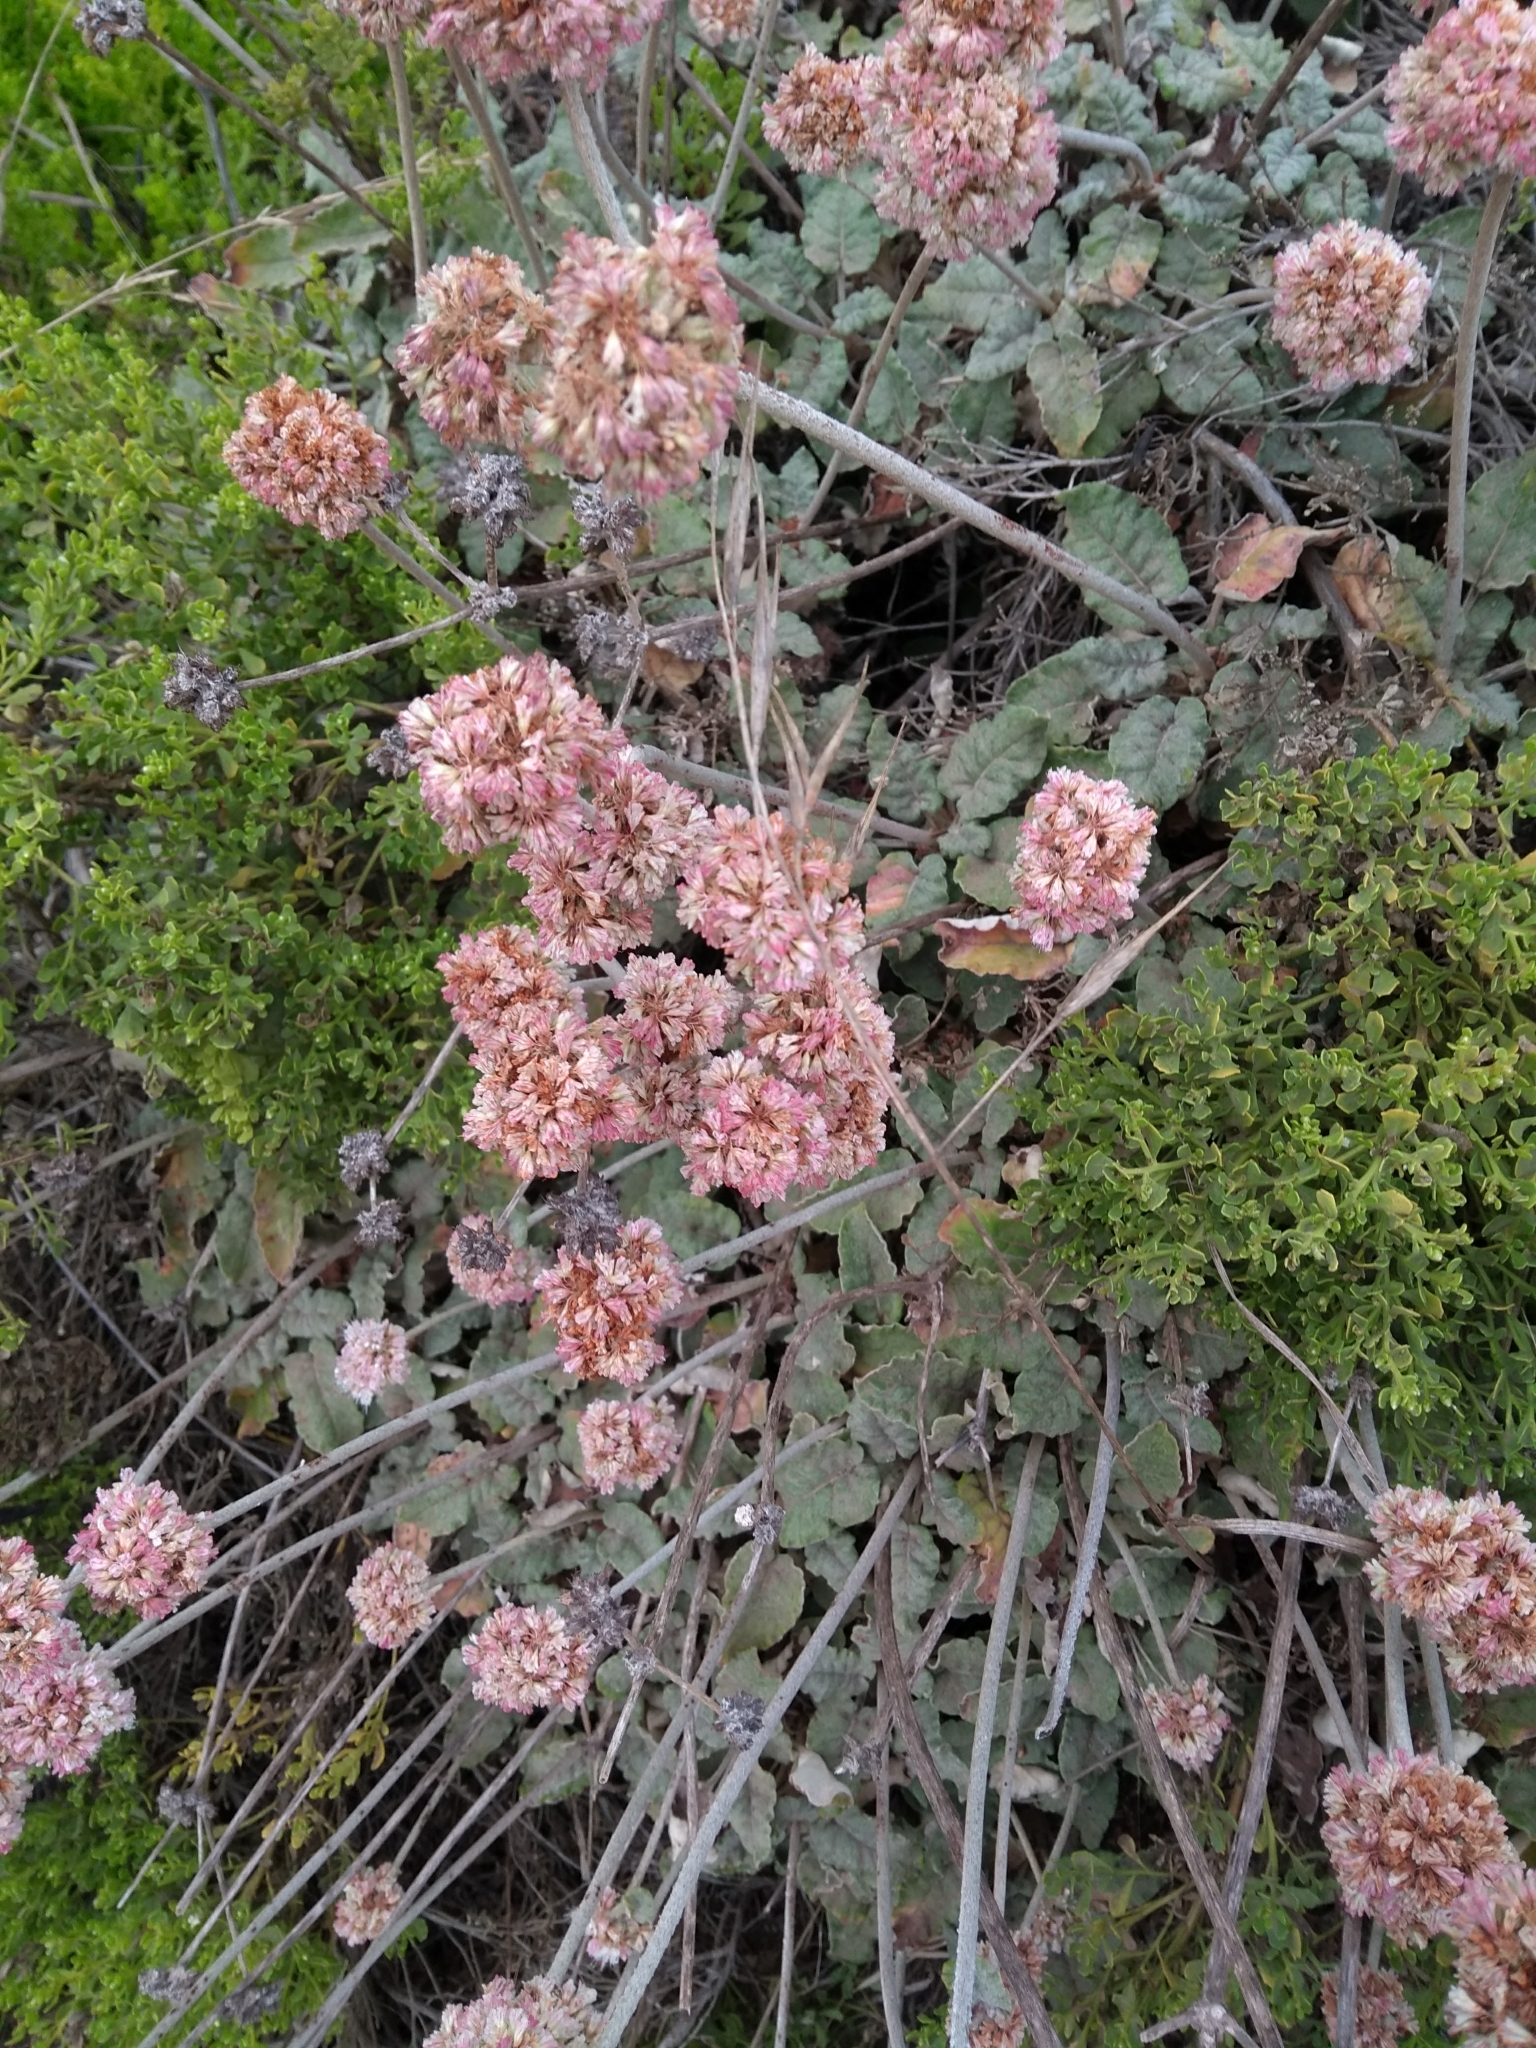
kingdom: Plantae
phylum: Tracheophyta
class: Magnoliopsida
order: Caryophyllales
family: Polygonaceae
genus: Eriogonum
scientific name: Eriogonum latifolium
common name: Seaside wild buckwheat
